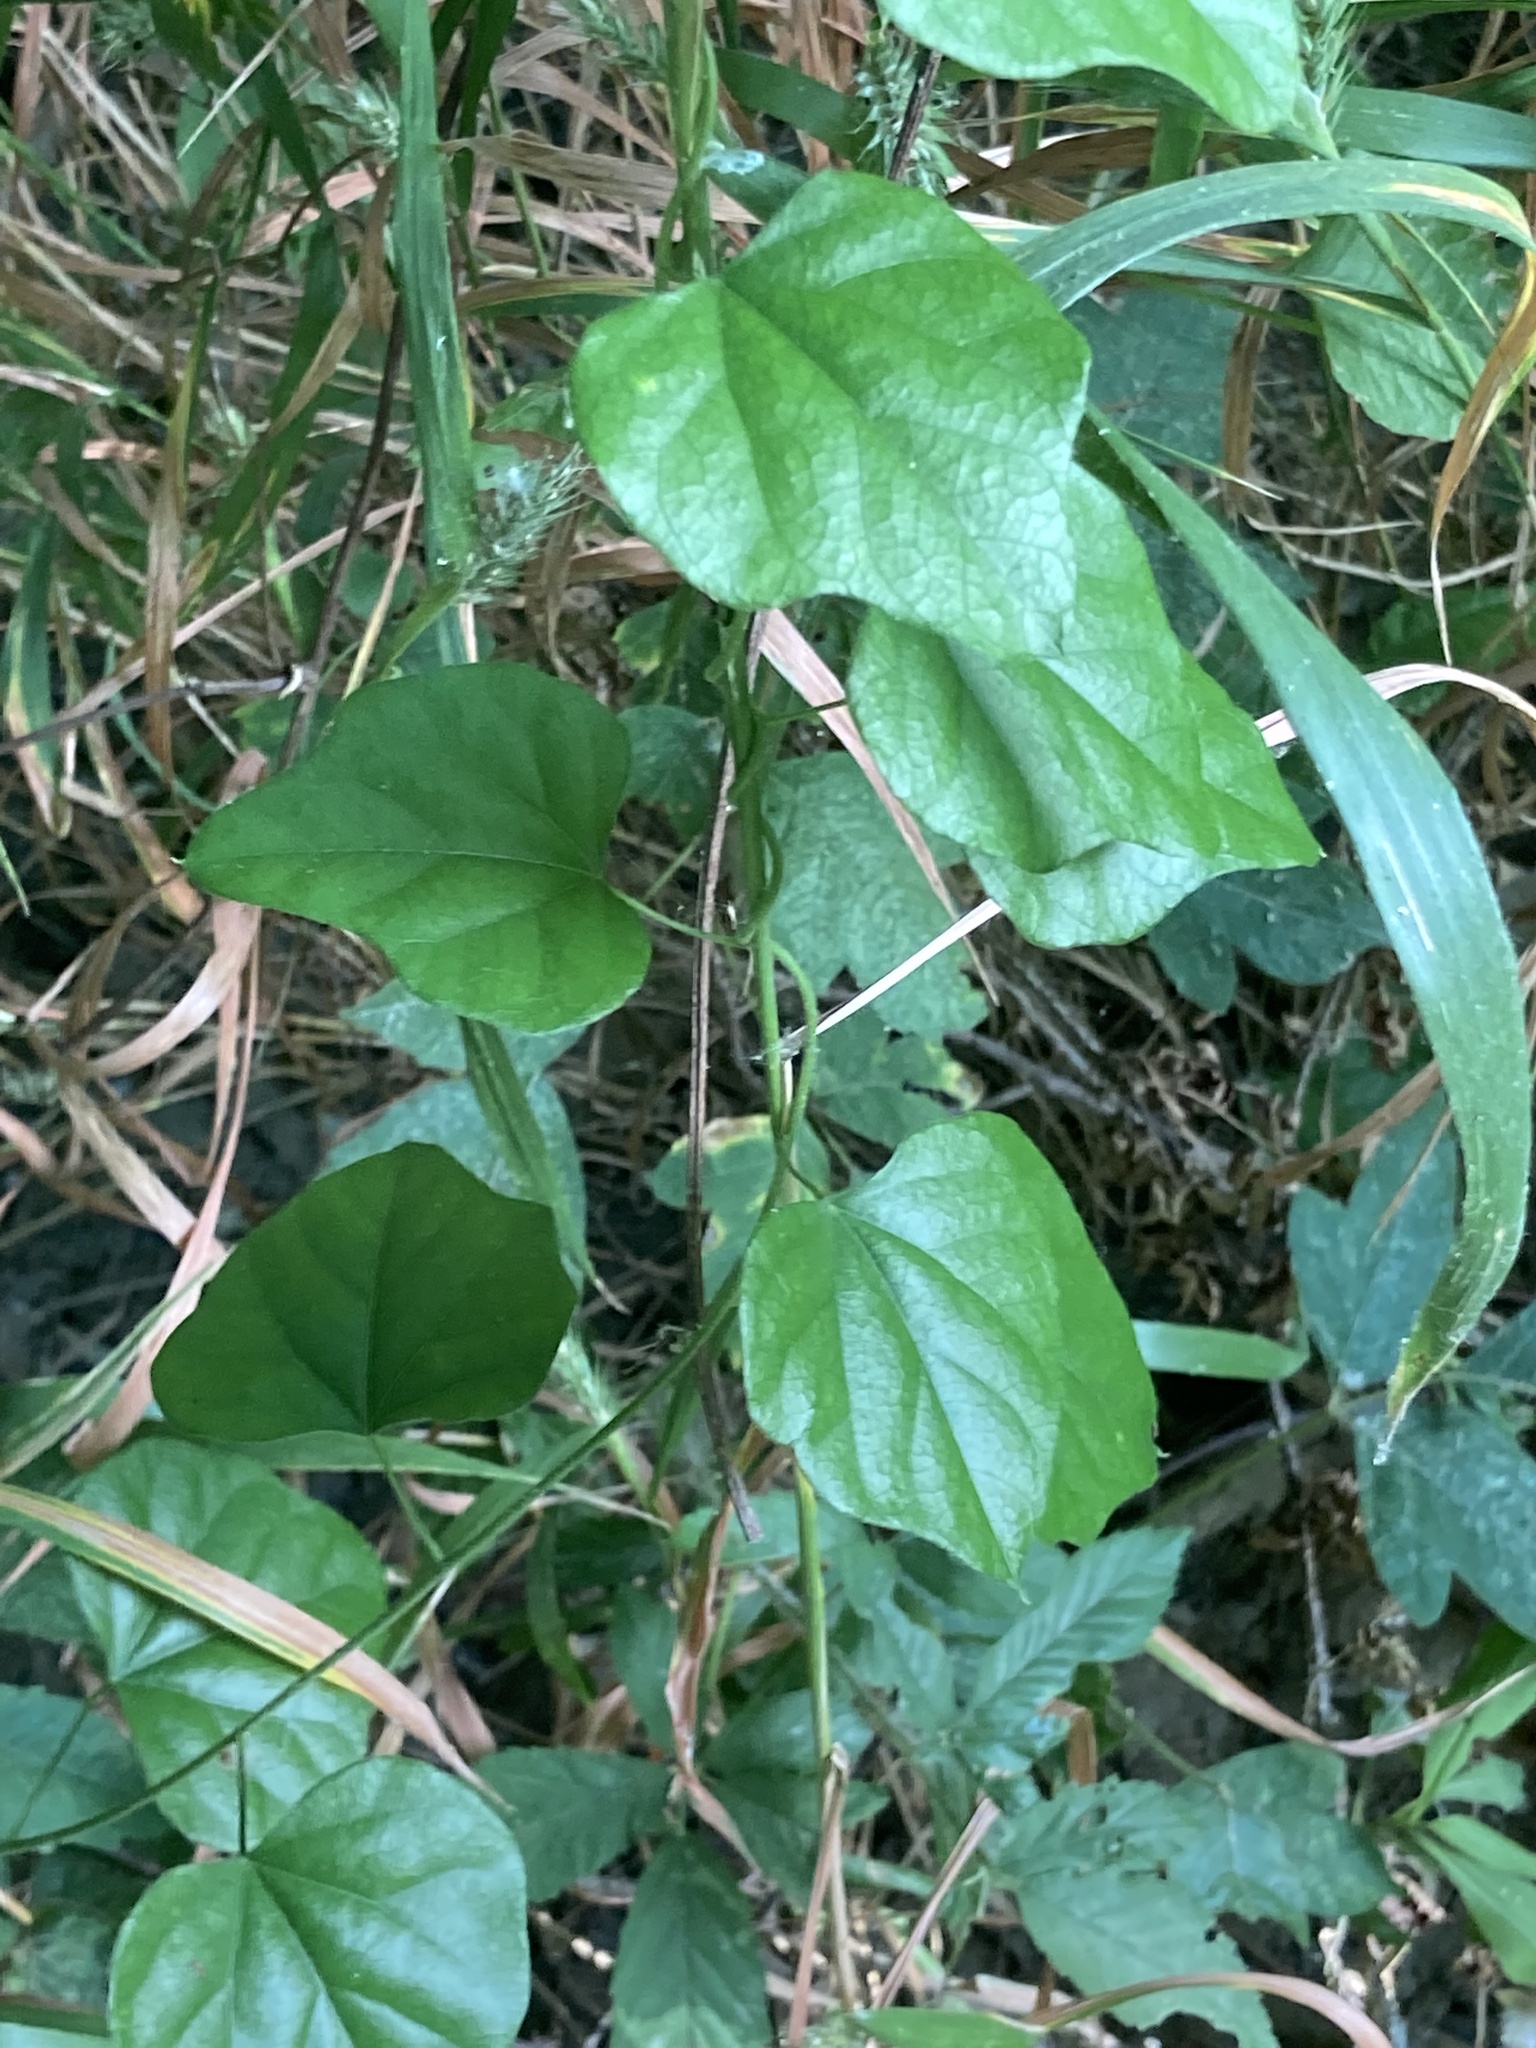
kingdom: Plantae
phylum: Tracheophyta
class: Magnoliopsida
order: Ranunculales
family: Menispermaceae
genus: Cocculus
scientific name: Cocculus carolinus
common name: Carolina moonseed
